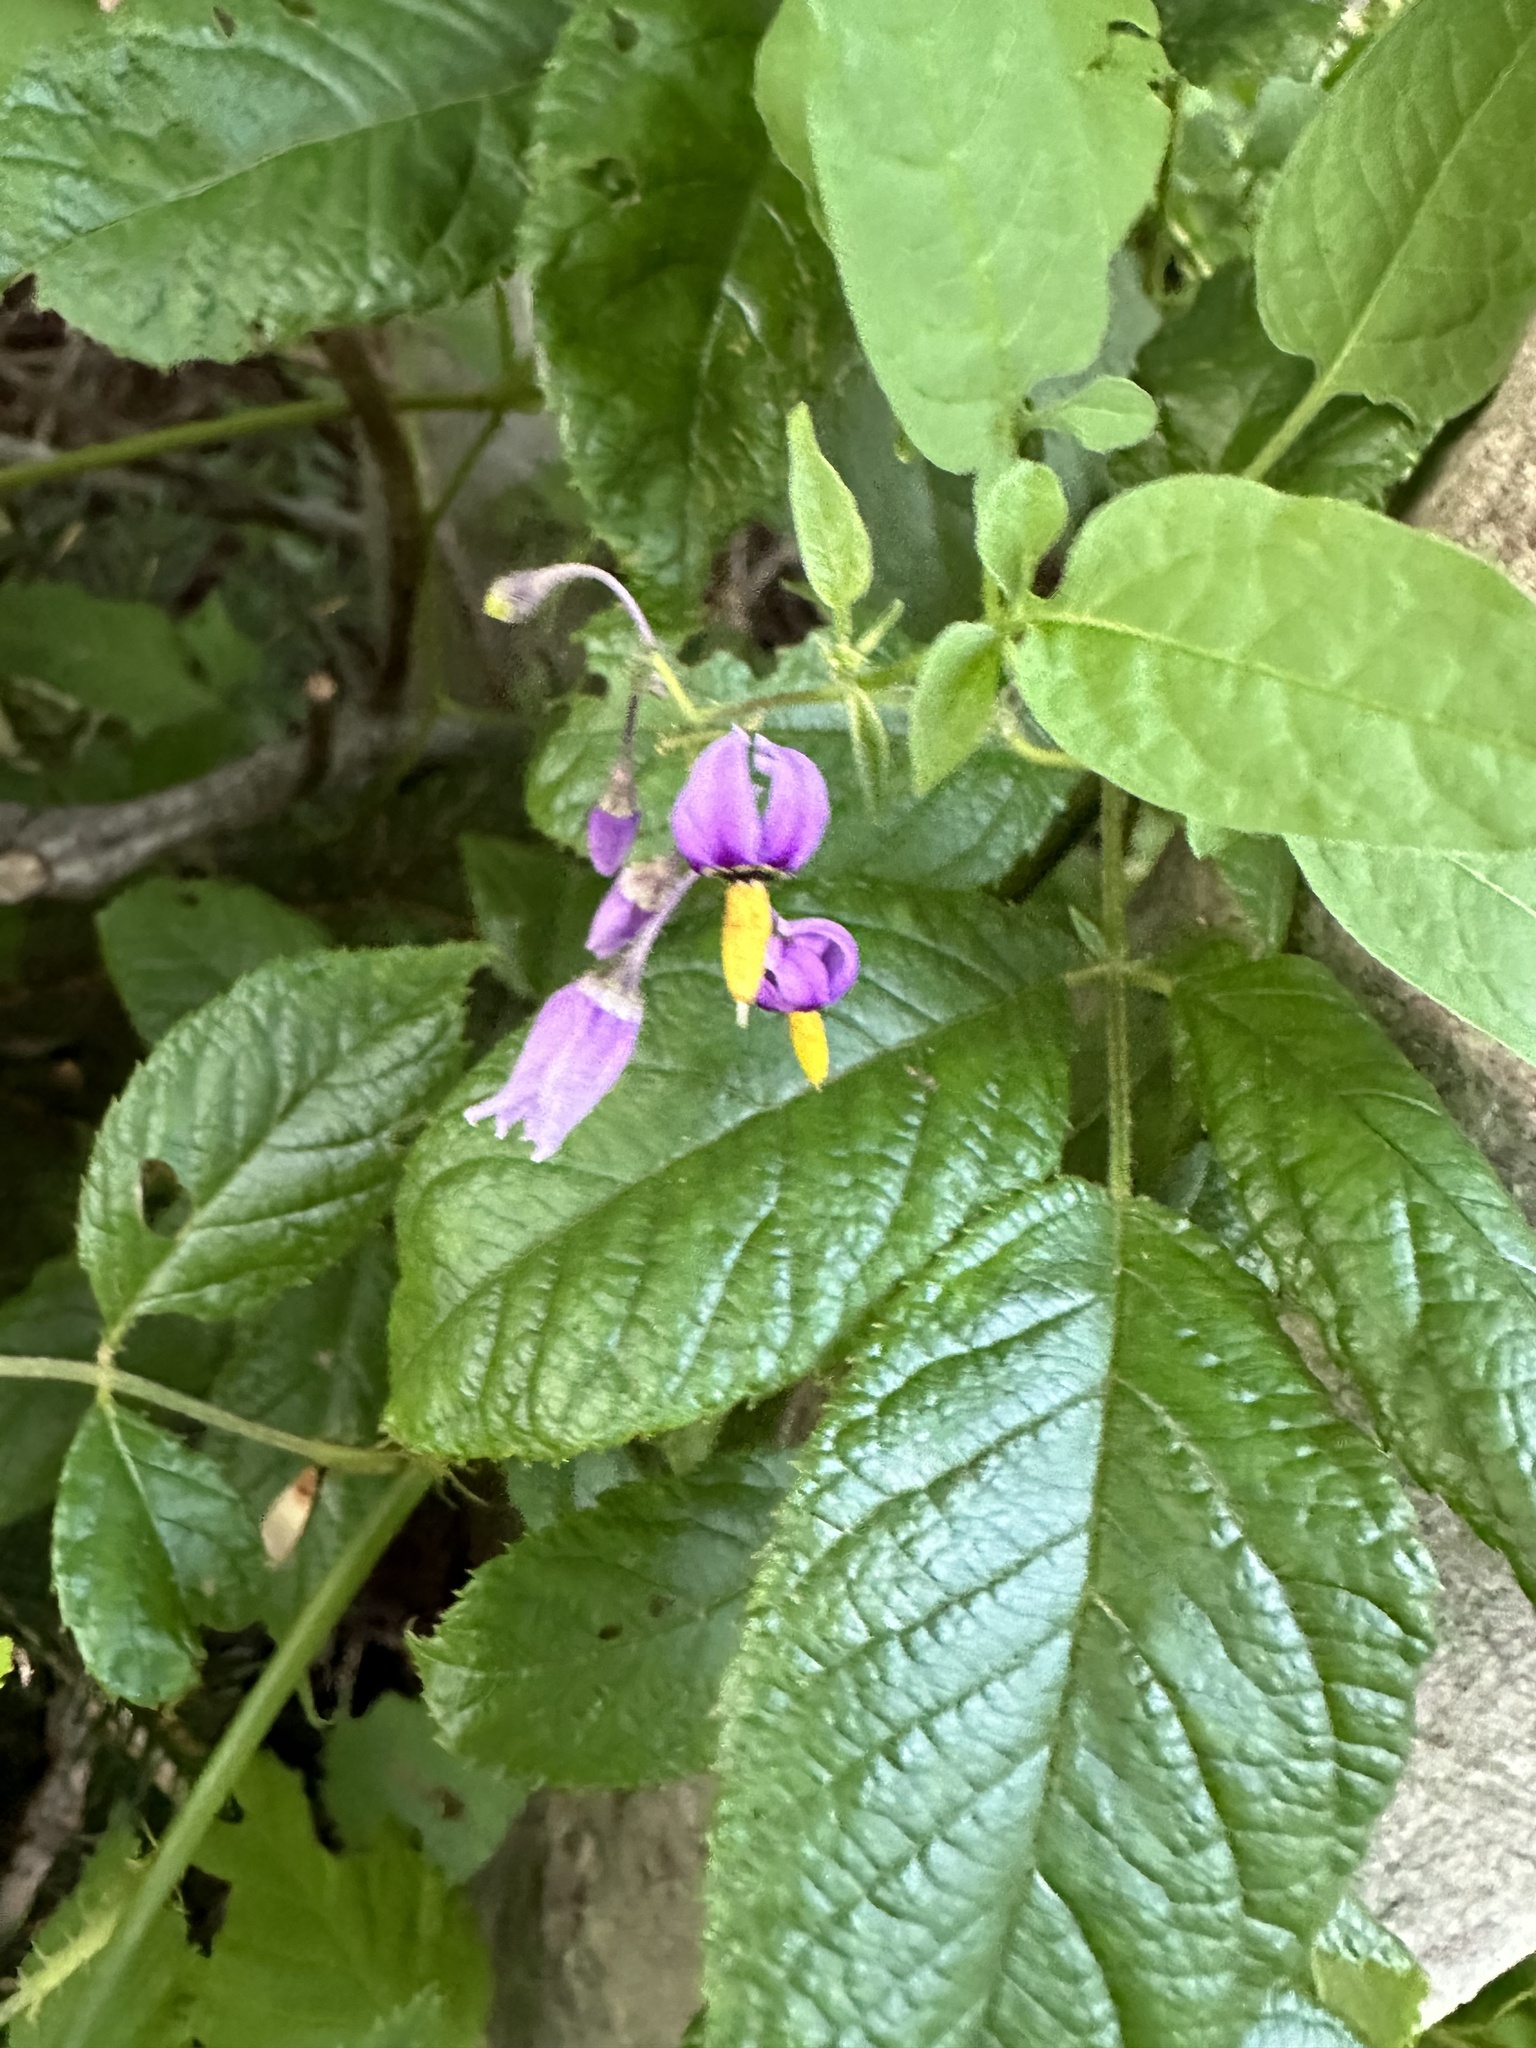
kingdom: Plantae
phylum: Tracheophyta
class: Magnoliopsida
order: Solanales
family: Solanaceae
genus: Solanum
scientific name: Solanum dulcamara
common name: Climbing nightshade
